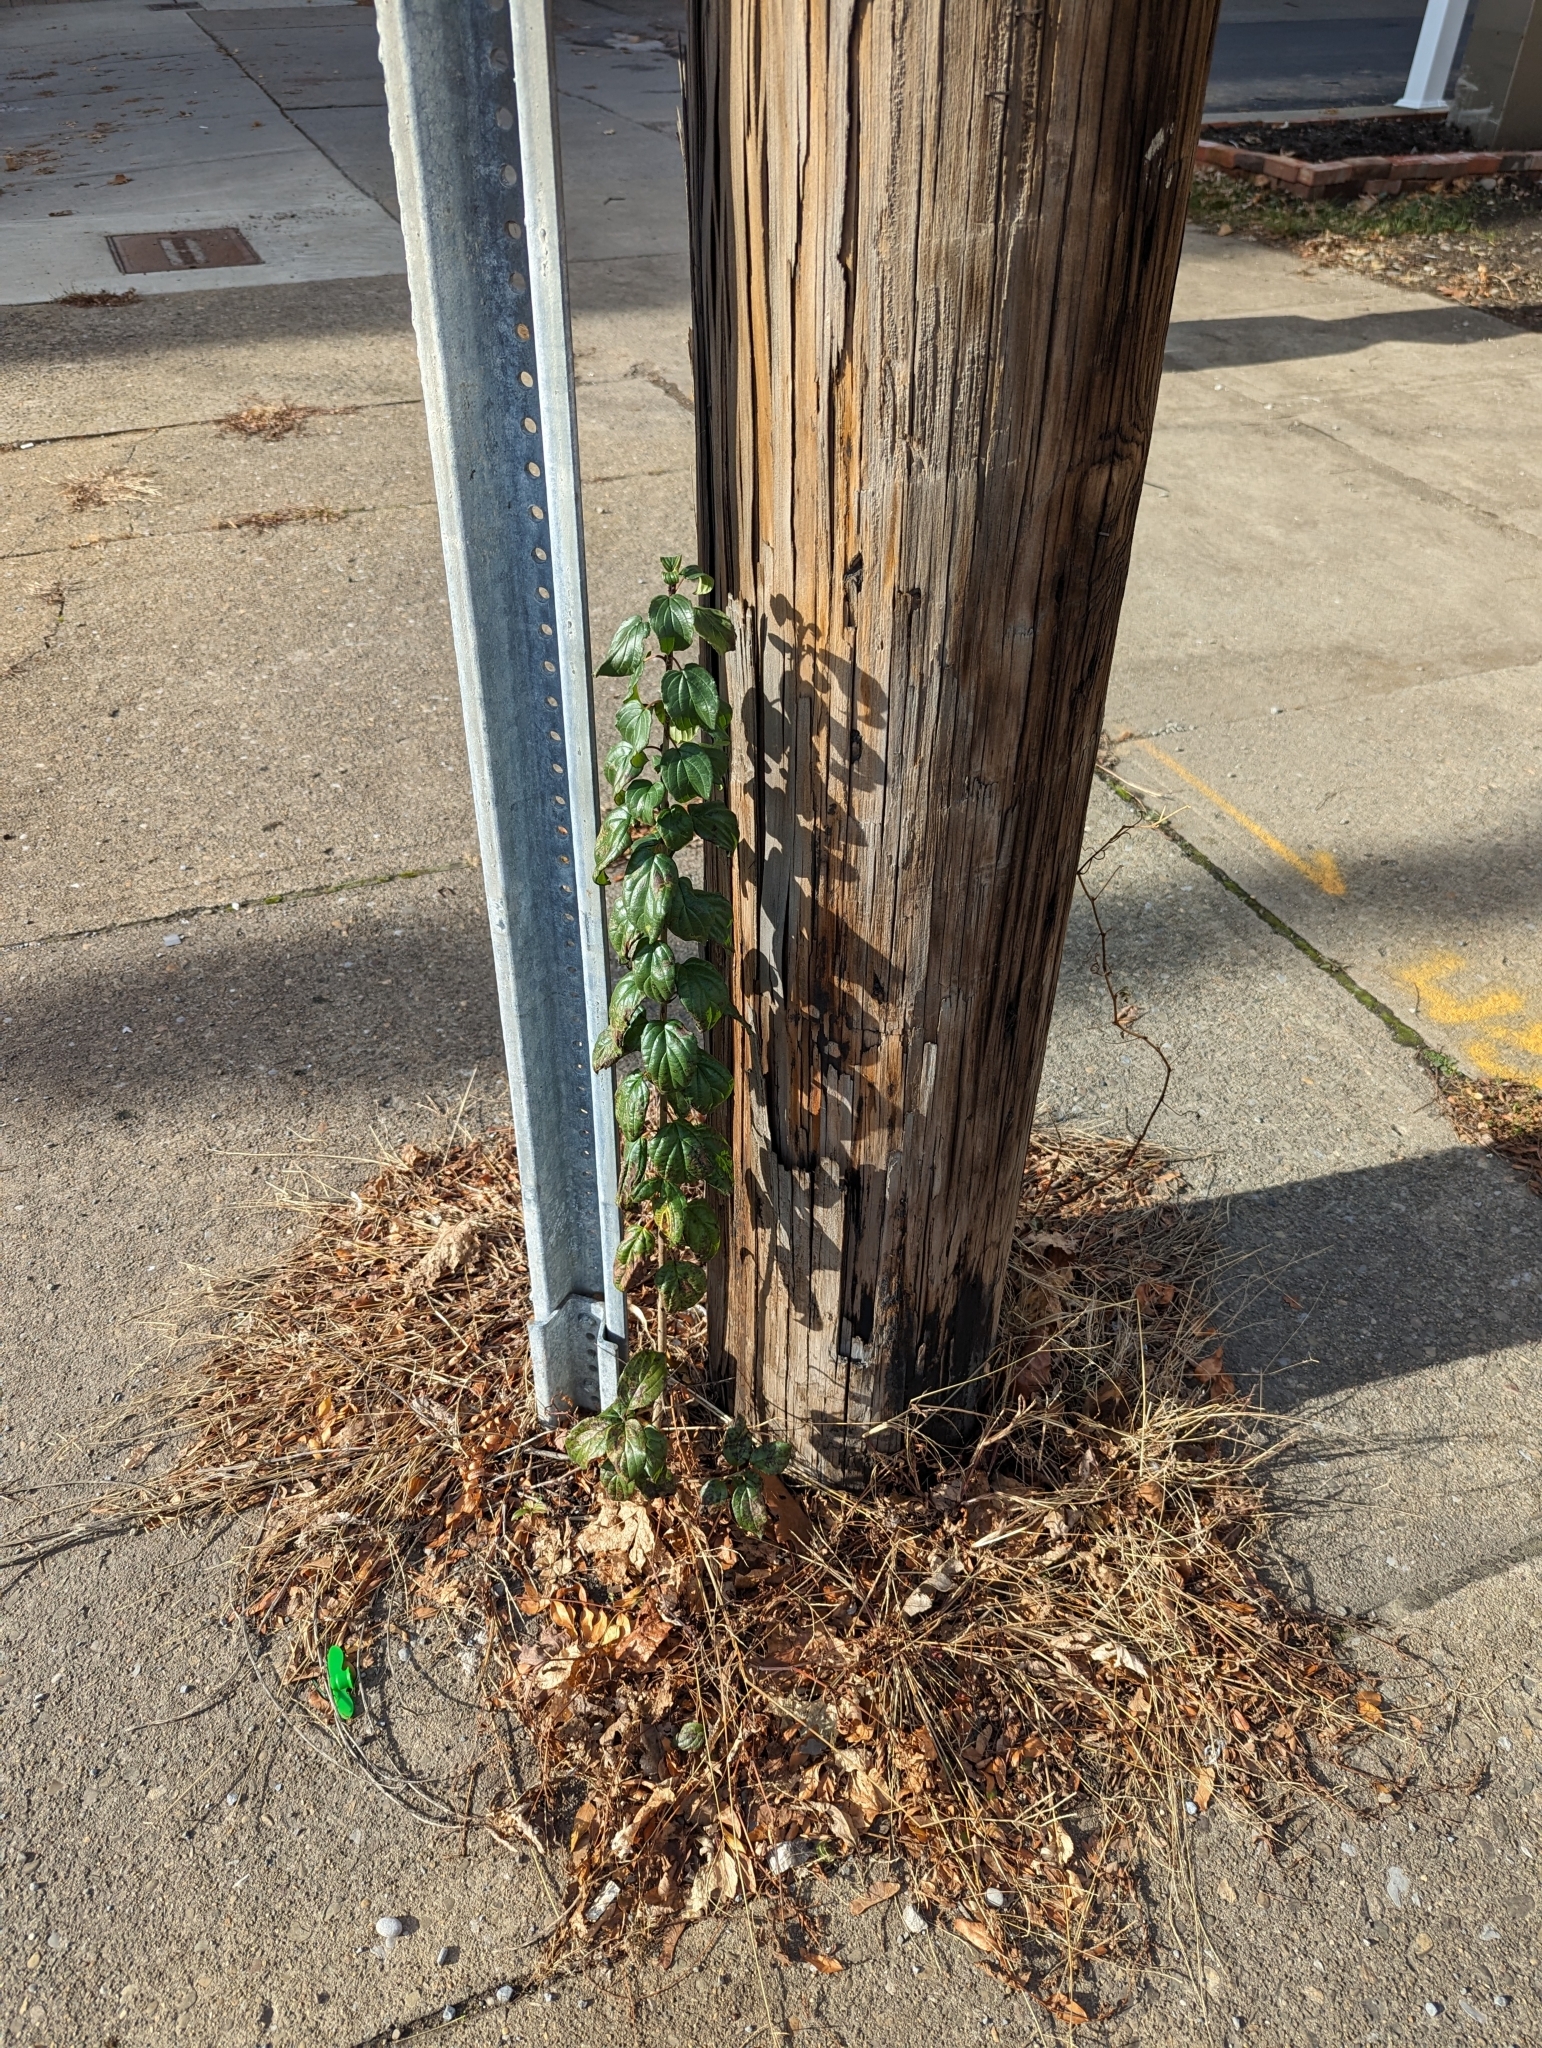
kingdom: Plantae
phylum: Tracheophyta
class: Magnoliopsida
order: Rosales
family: Rhamnaceae
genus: Rhamnus
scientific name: Rhamnus cathartica
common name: Common buckthorn
